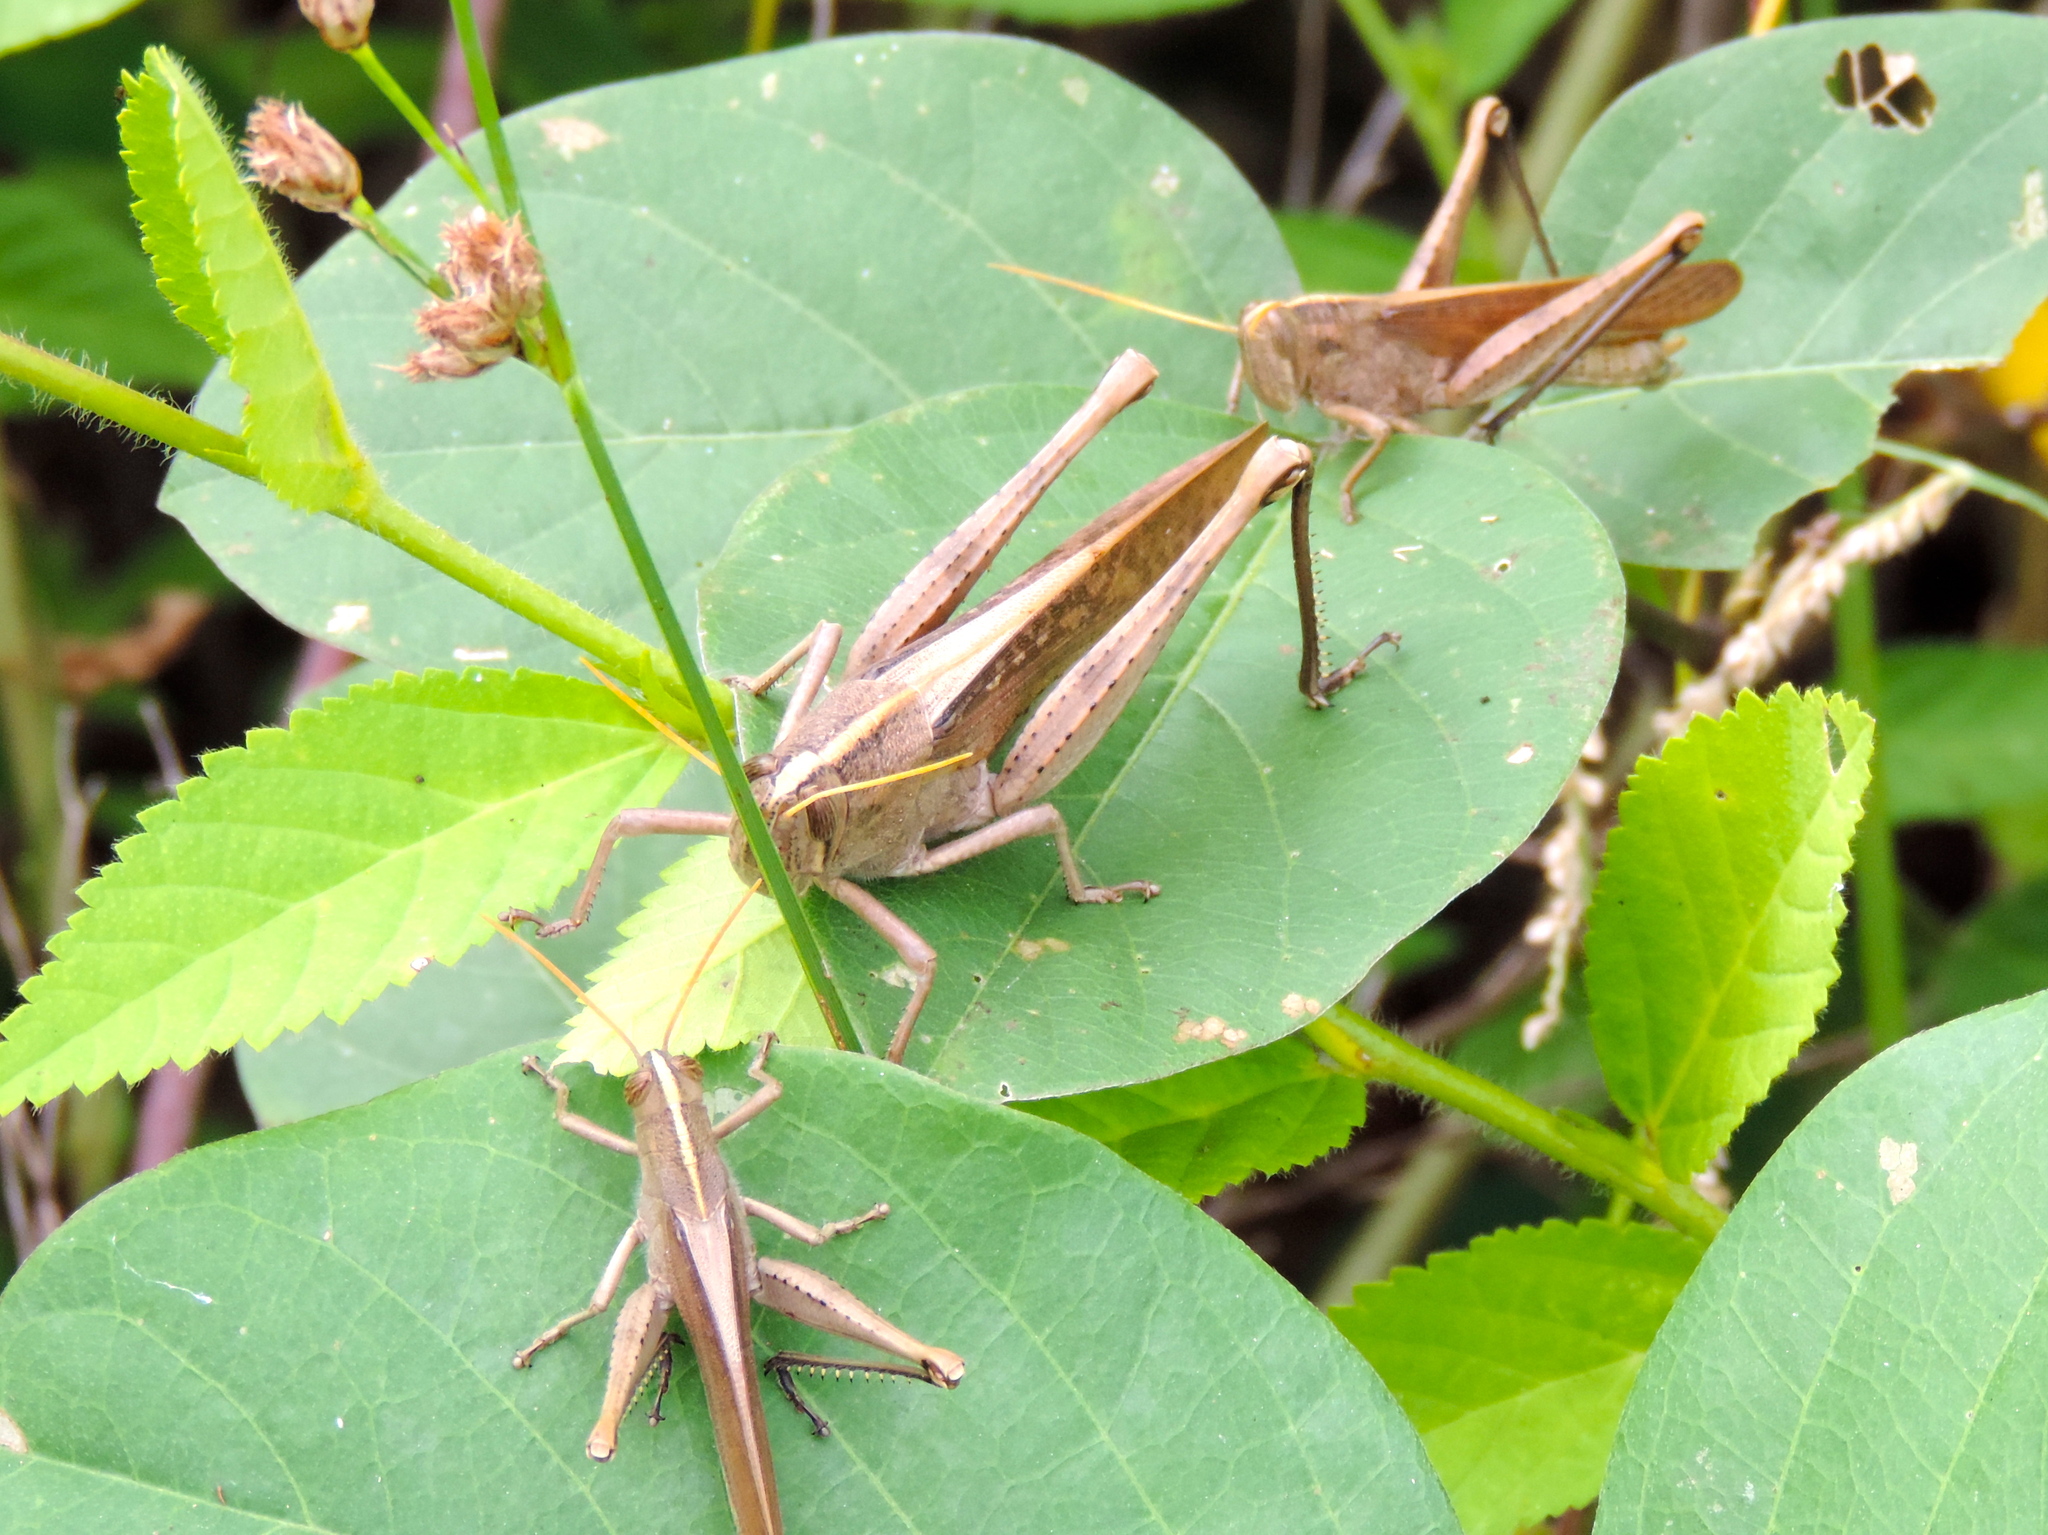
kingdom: Animalia
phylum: Arthropoda
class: Insecta
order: Orthoptera
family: Acrididae
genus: Schistocerca
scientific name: Schistocerca
